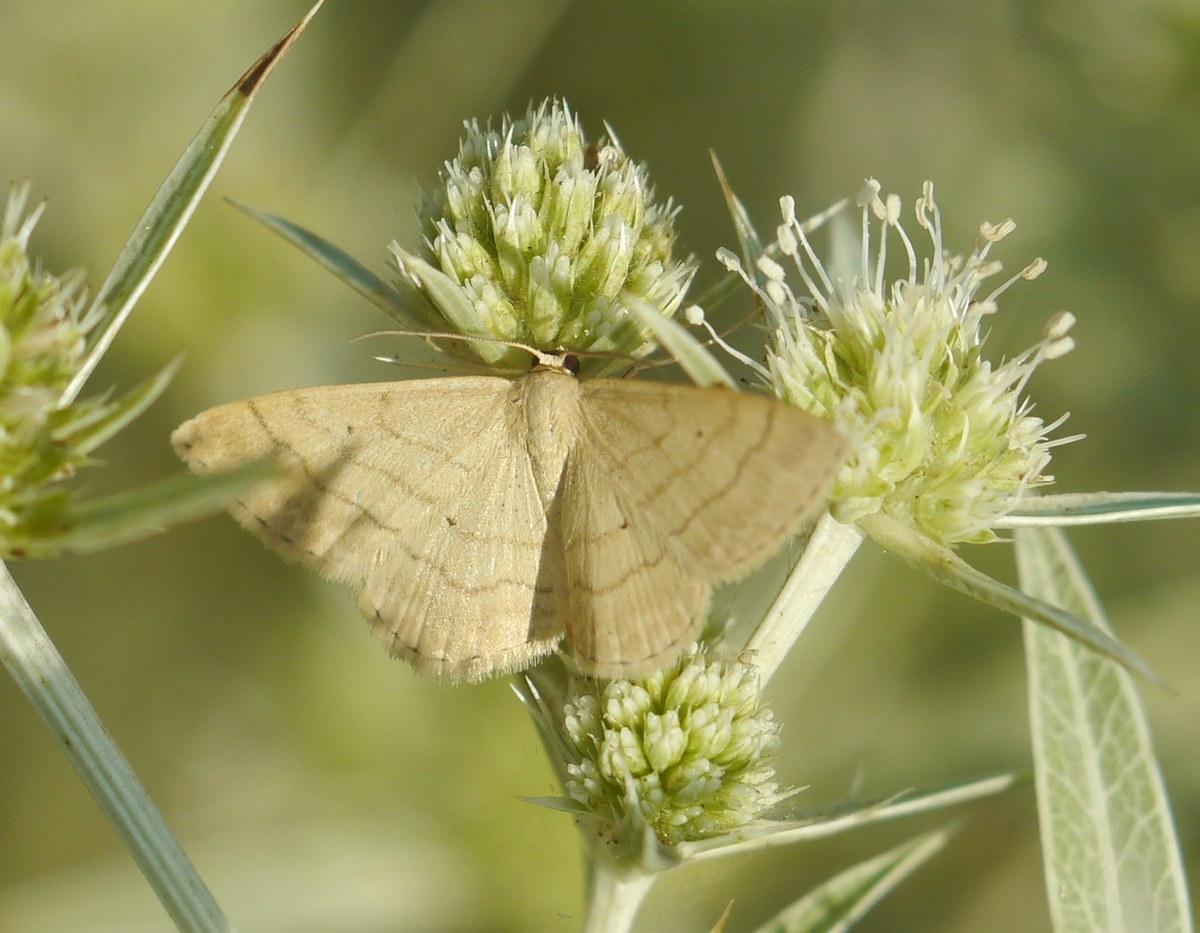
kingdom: Animalia
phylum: Arthropoda
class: Insecta
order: Lepidoptera
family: Geometridae
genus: Scopula
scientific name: Scopula rubiginata
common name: Tawny wave
